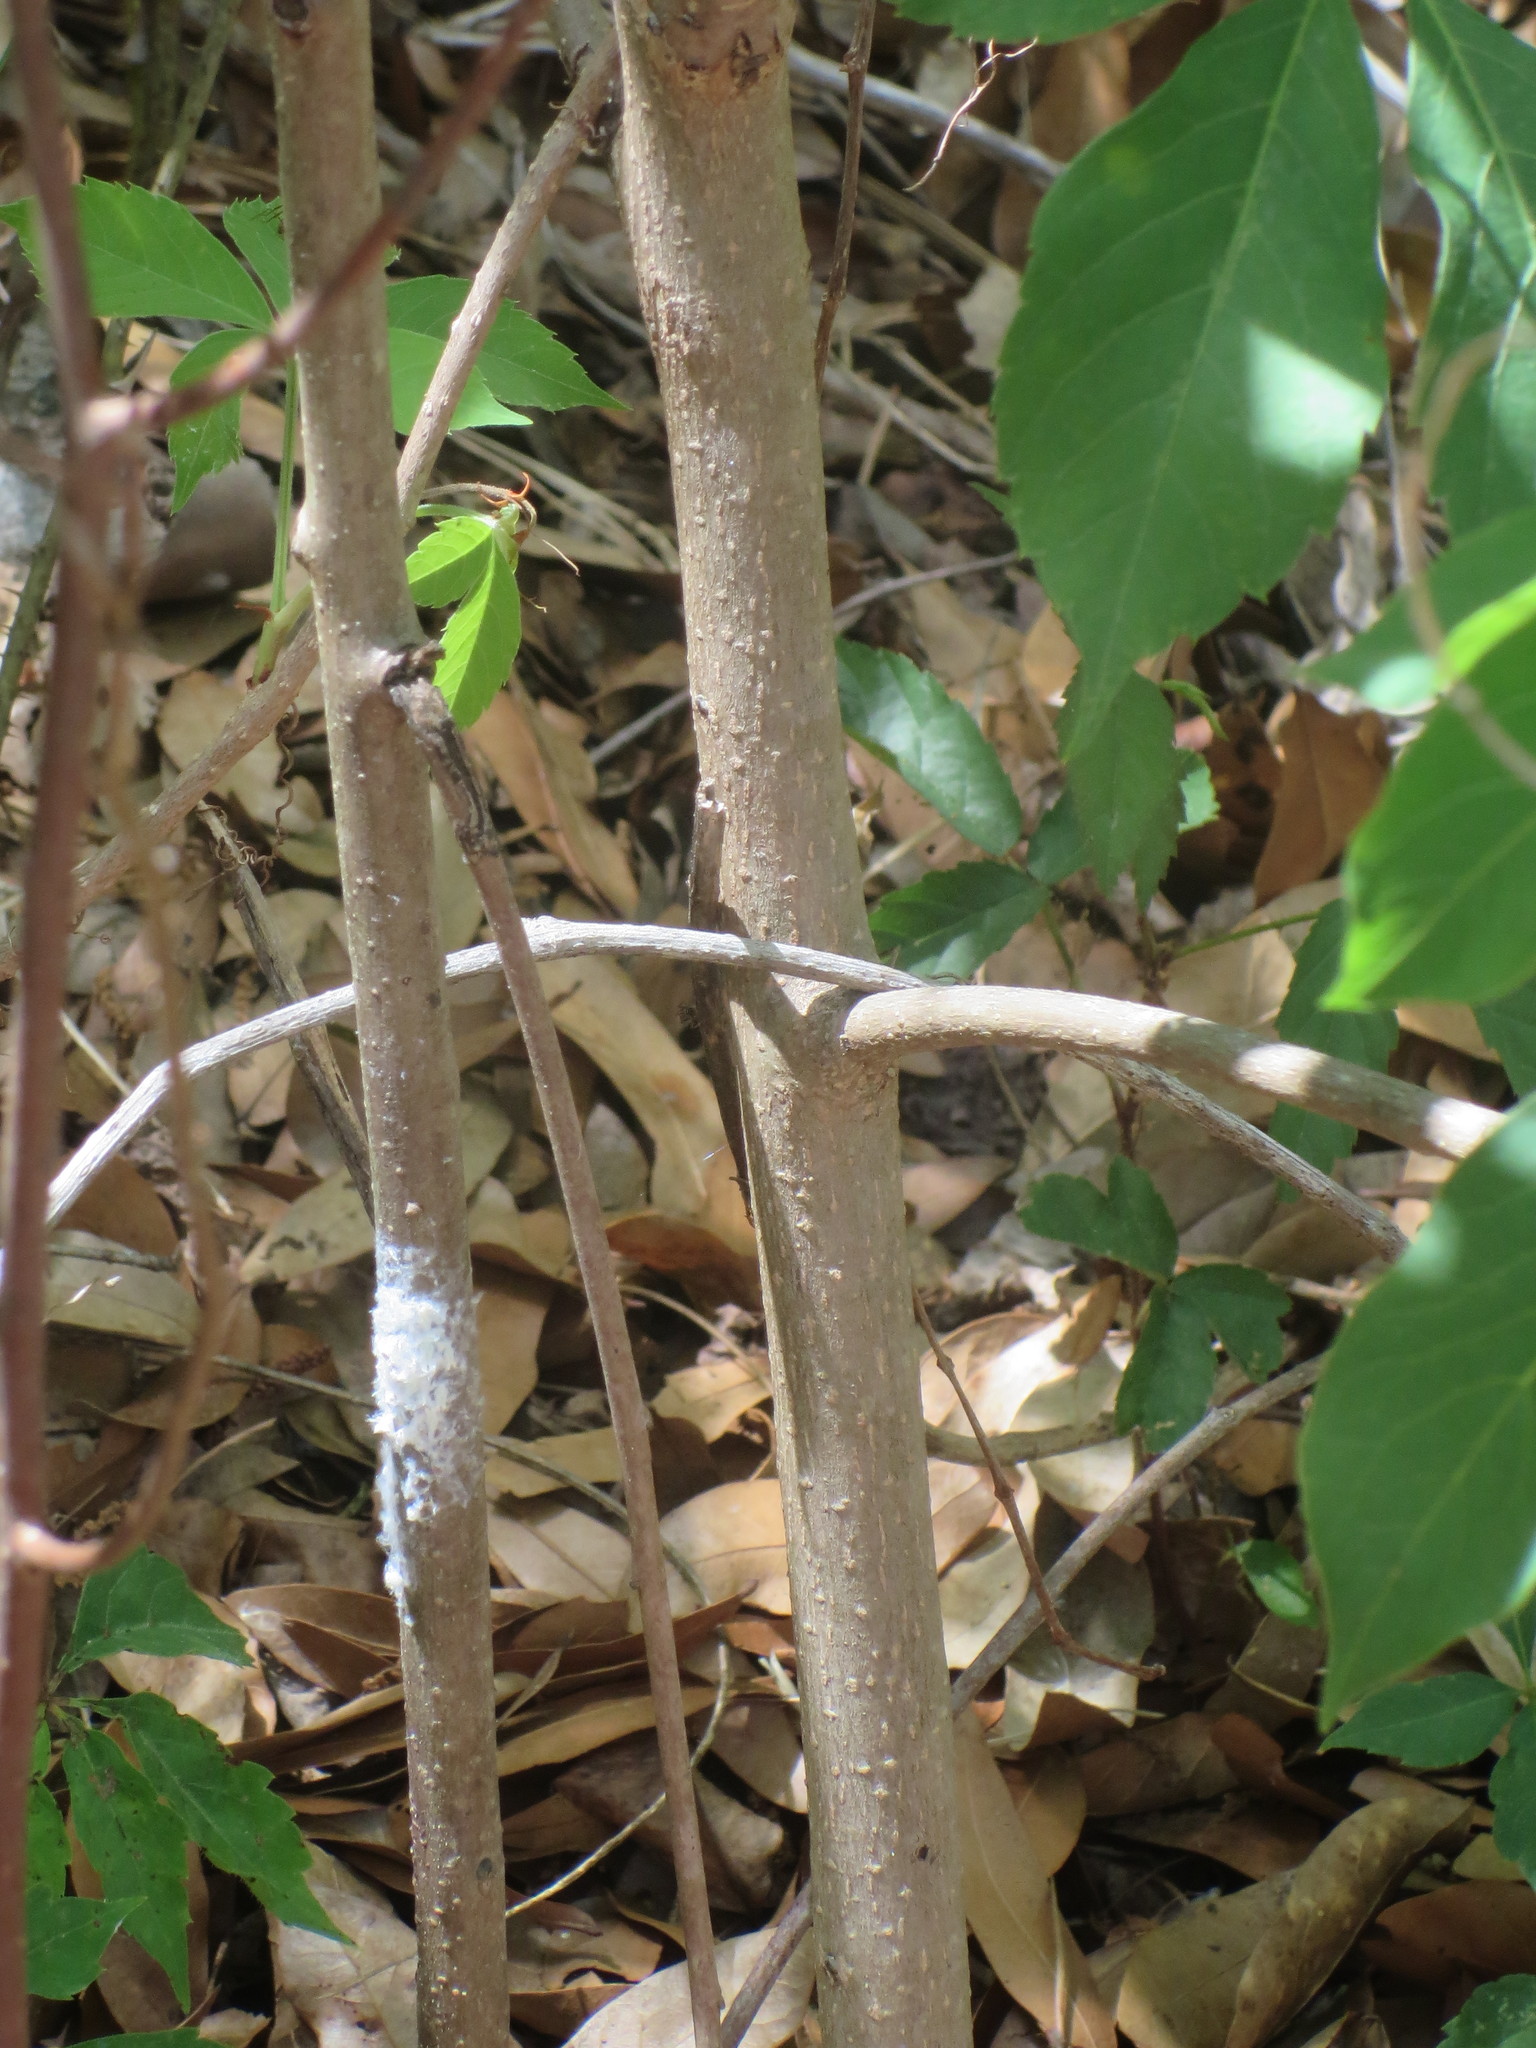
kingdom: Plantae
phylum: Tracheophyta
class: Magnoliopsida
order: Ericales
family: Ebenaceae
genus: Diospyros
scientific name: Diospyros virginiana
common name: Persimmon
